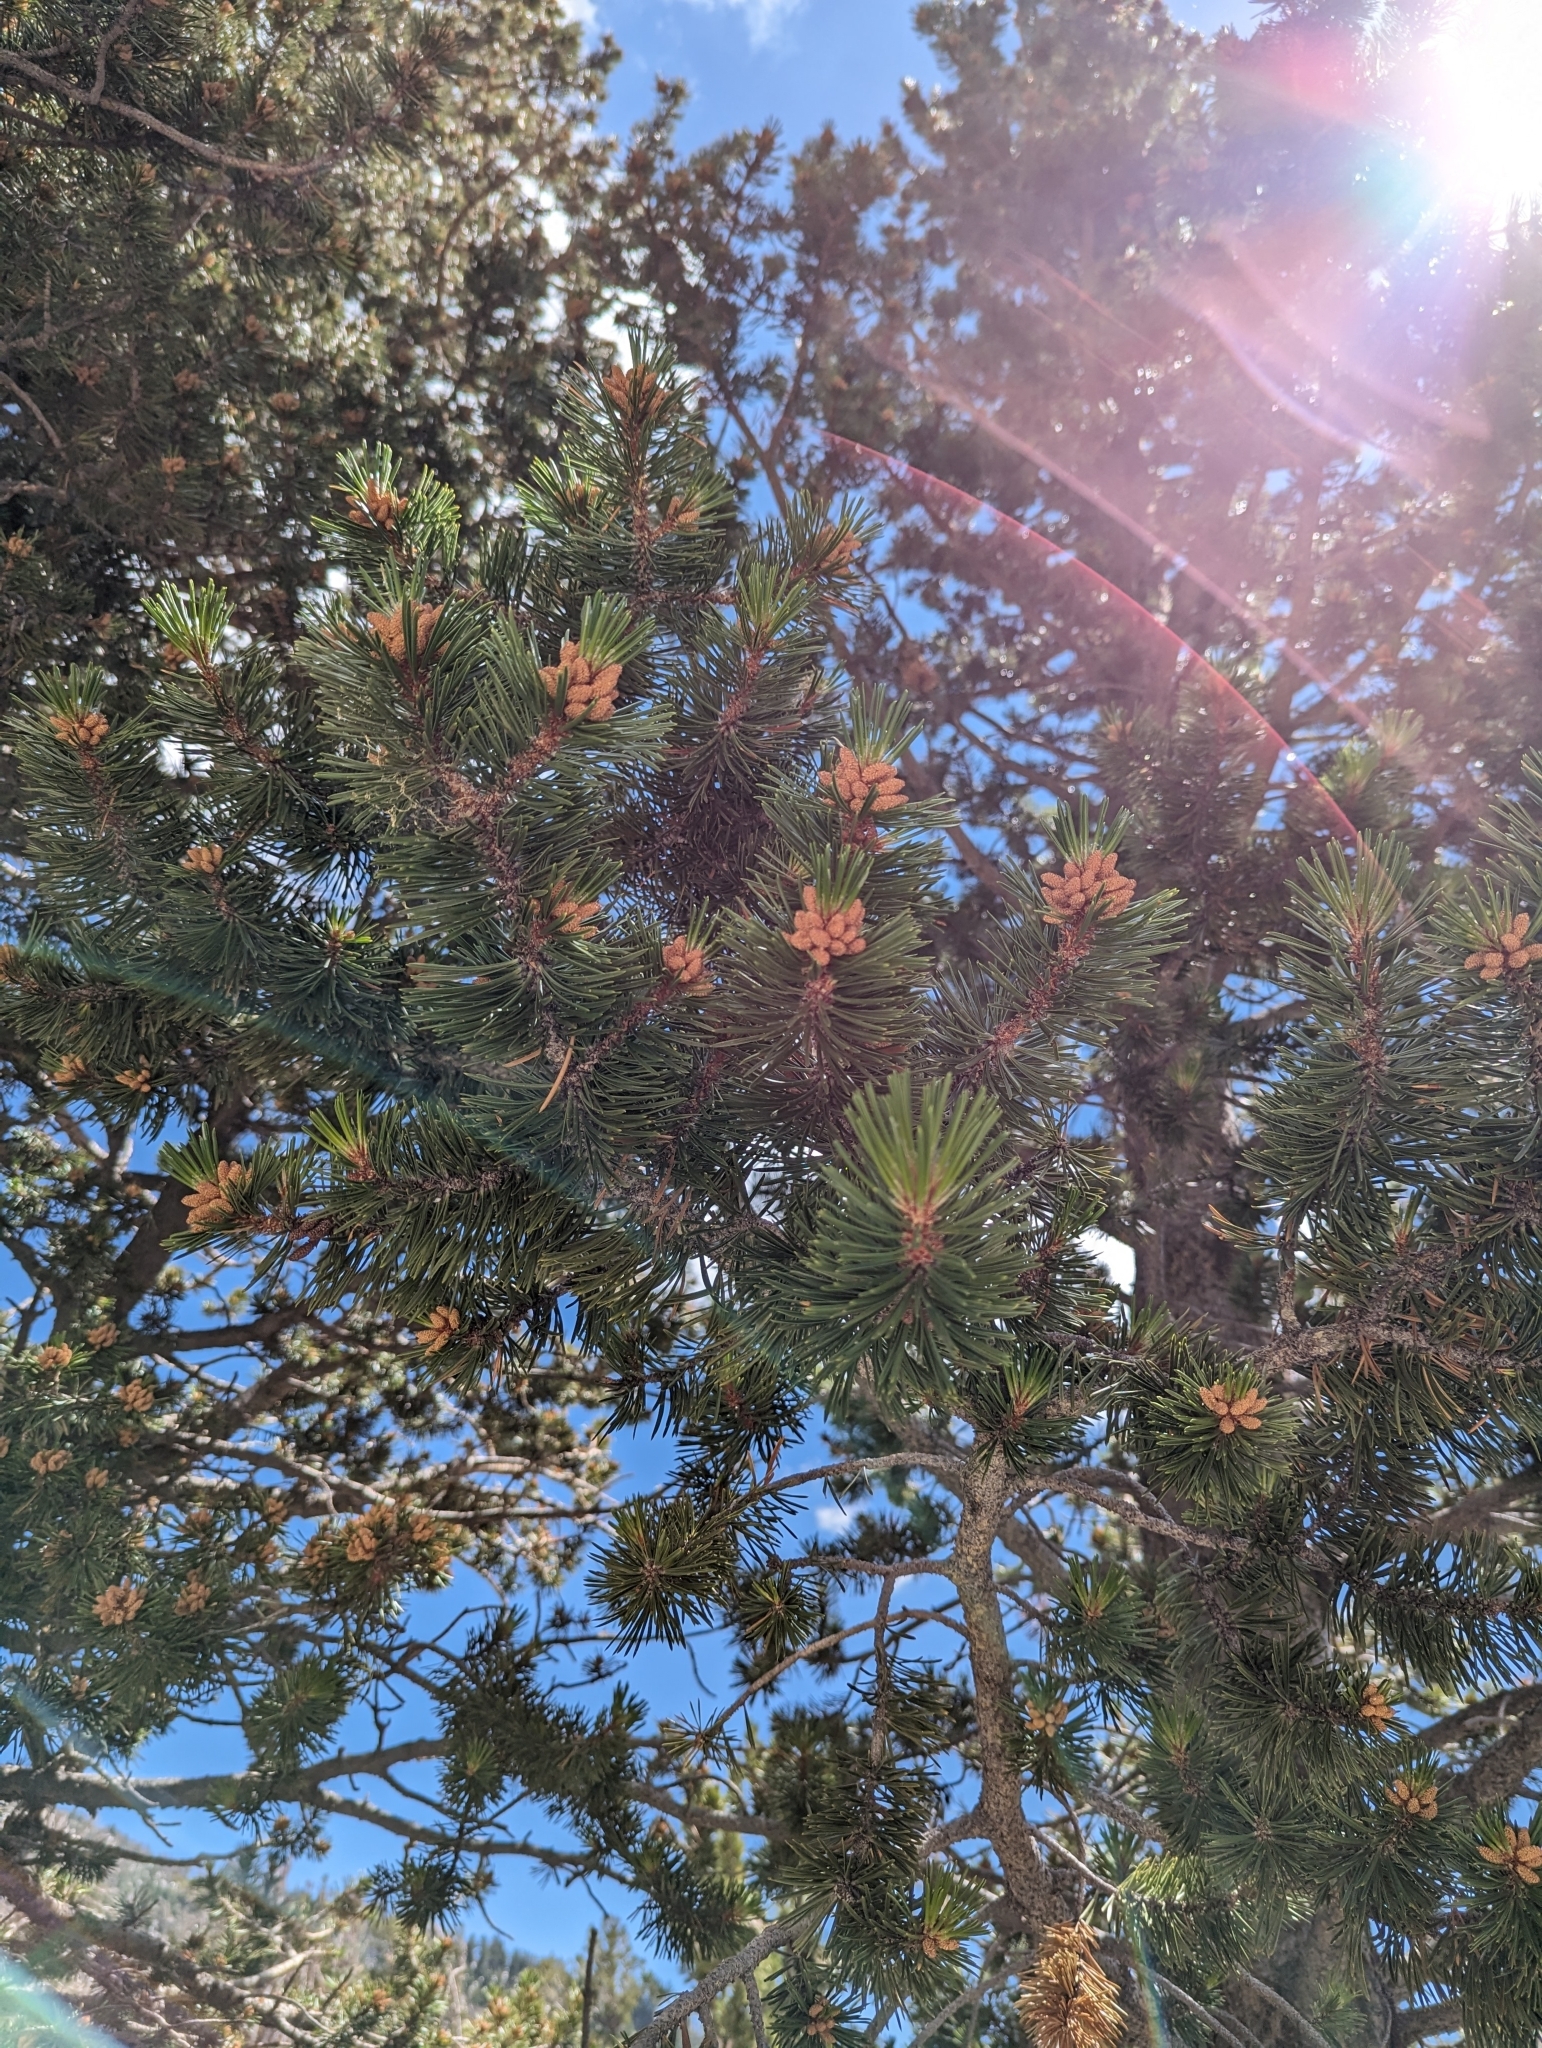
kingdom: Plantae
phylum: Tracheophyta
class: Pinopsida
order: Pinales
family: Pinaceae
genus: Pinus
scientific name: Pinus contorta
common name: Lodgepole pine
